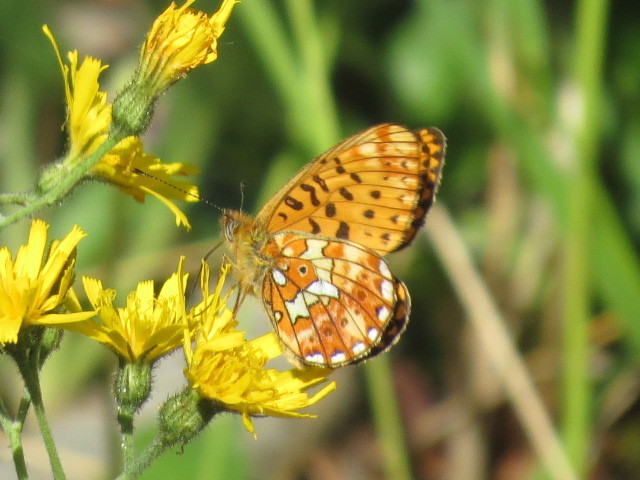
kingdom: Animalia
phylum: Arthropoda
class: Insecta
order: Lepidoptera
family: Nymphalidae
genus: Clossiana
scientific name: Clossiana euphrosyne
